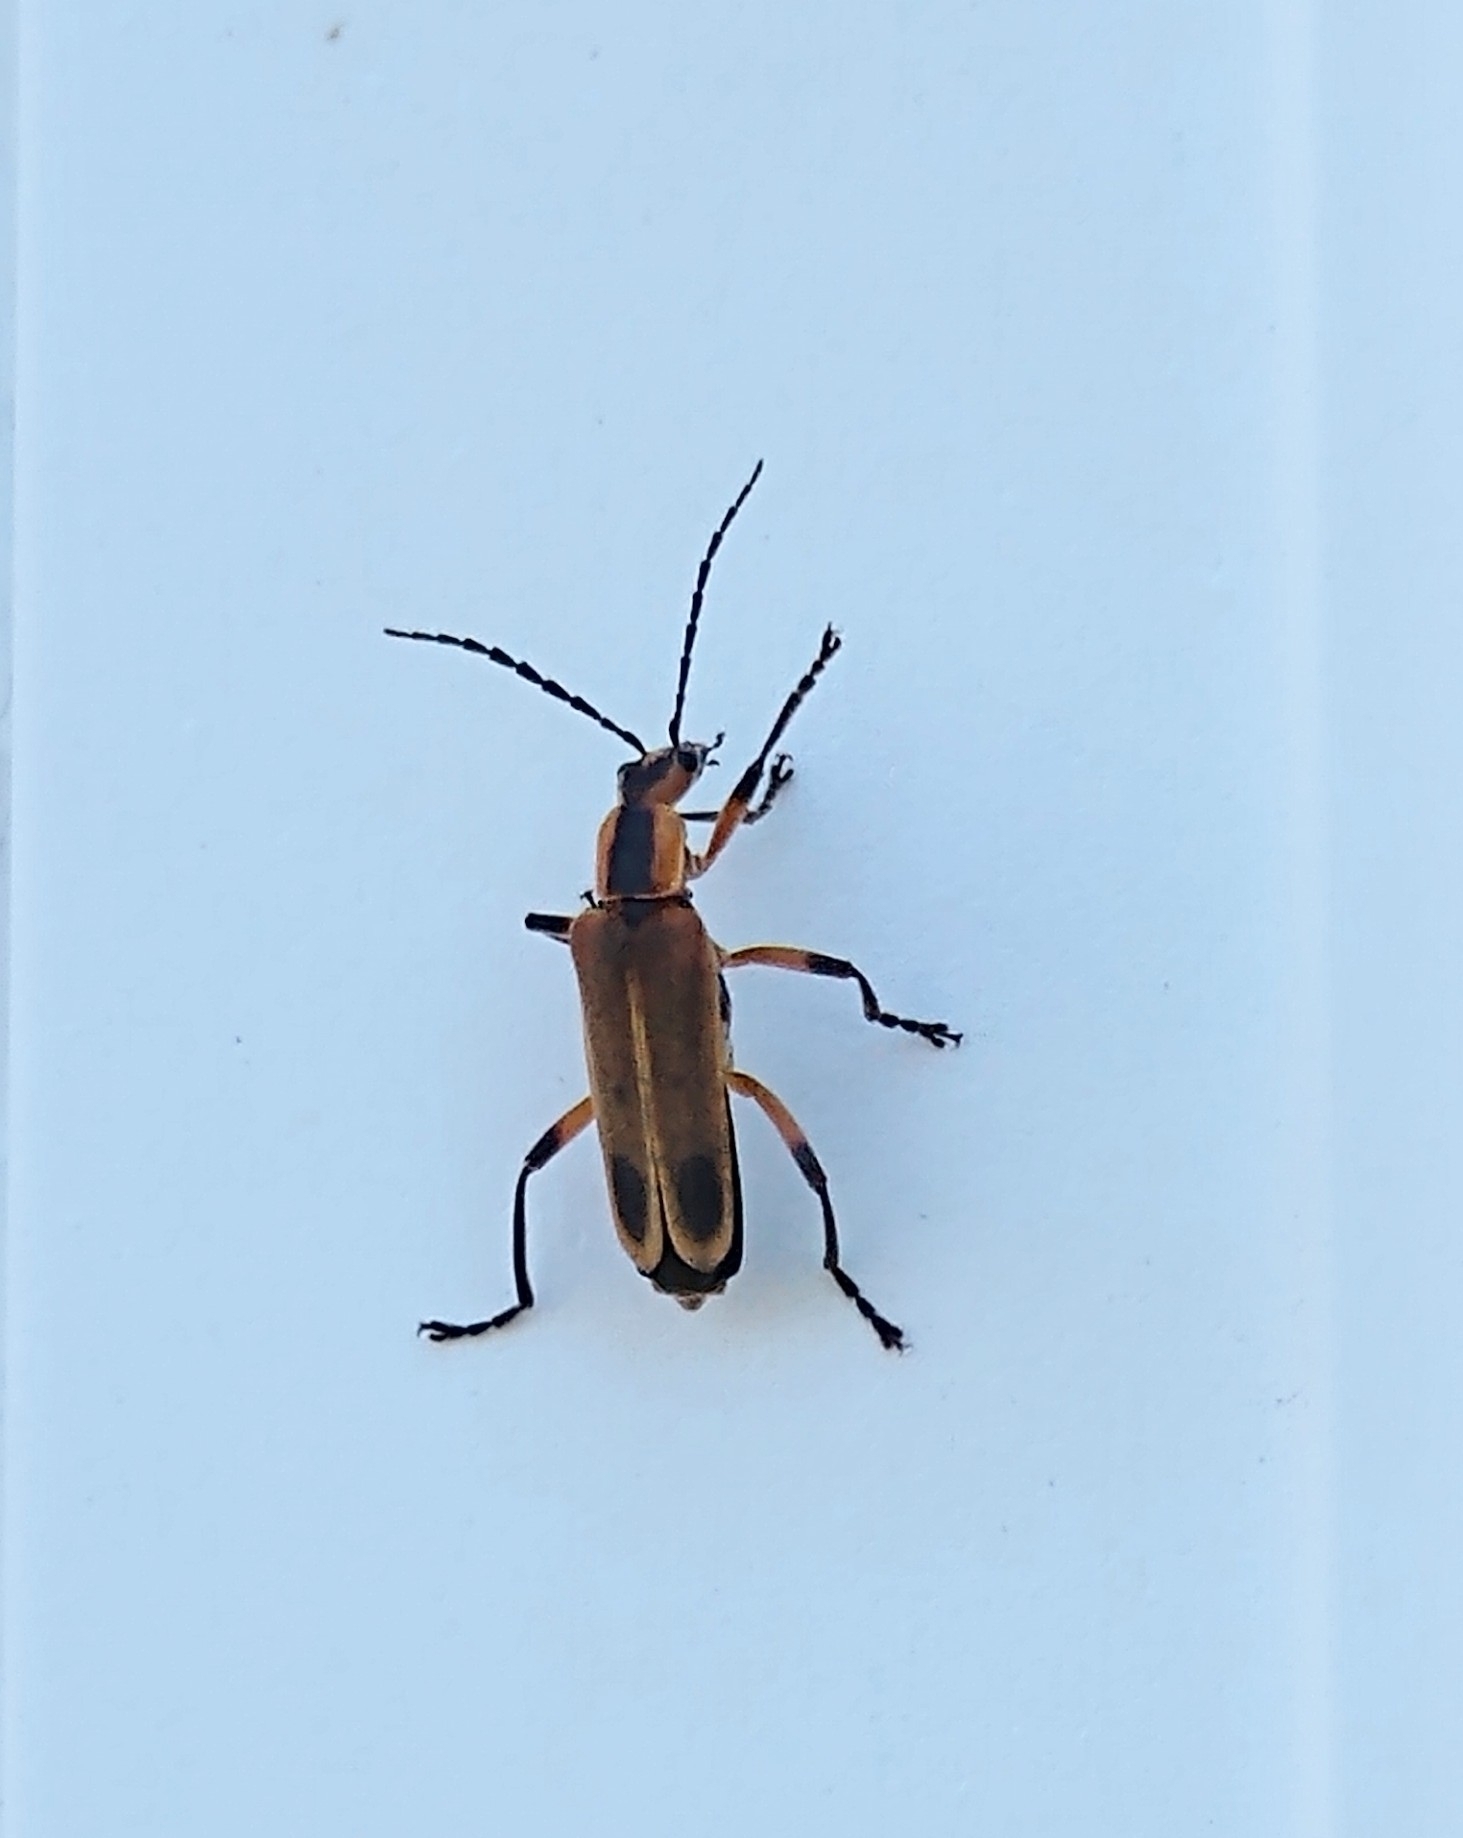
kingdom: Animalia
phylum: Arthropoda
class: Insecta
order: Coleoptera
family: Cantharidae
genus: Chauliognathus
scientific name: Chauliognathus marginatus
